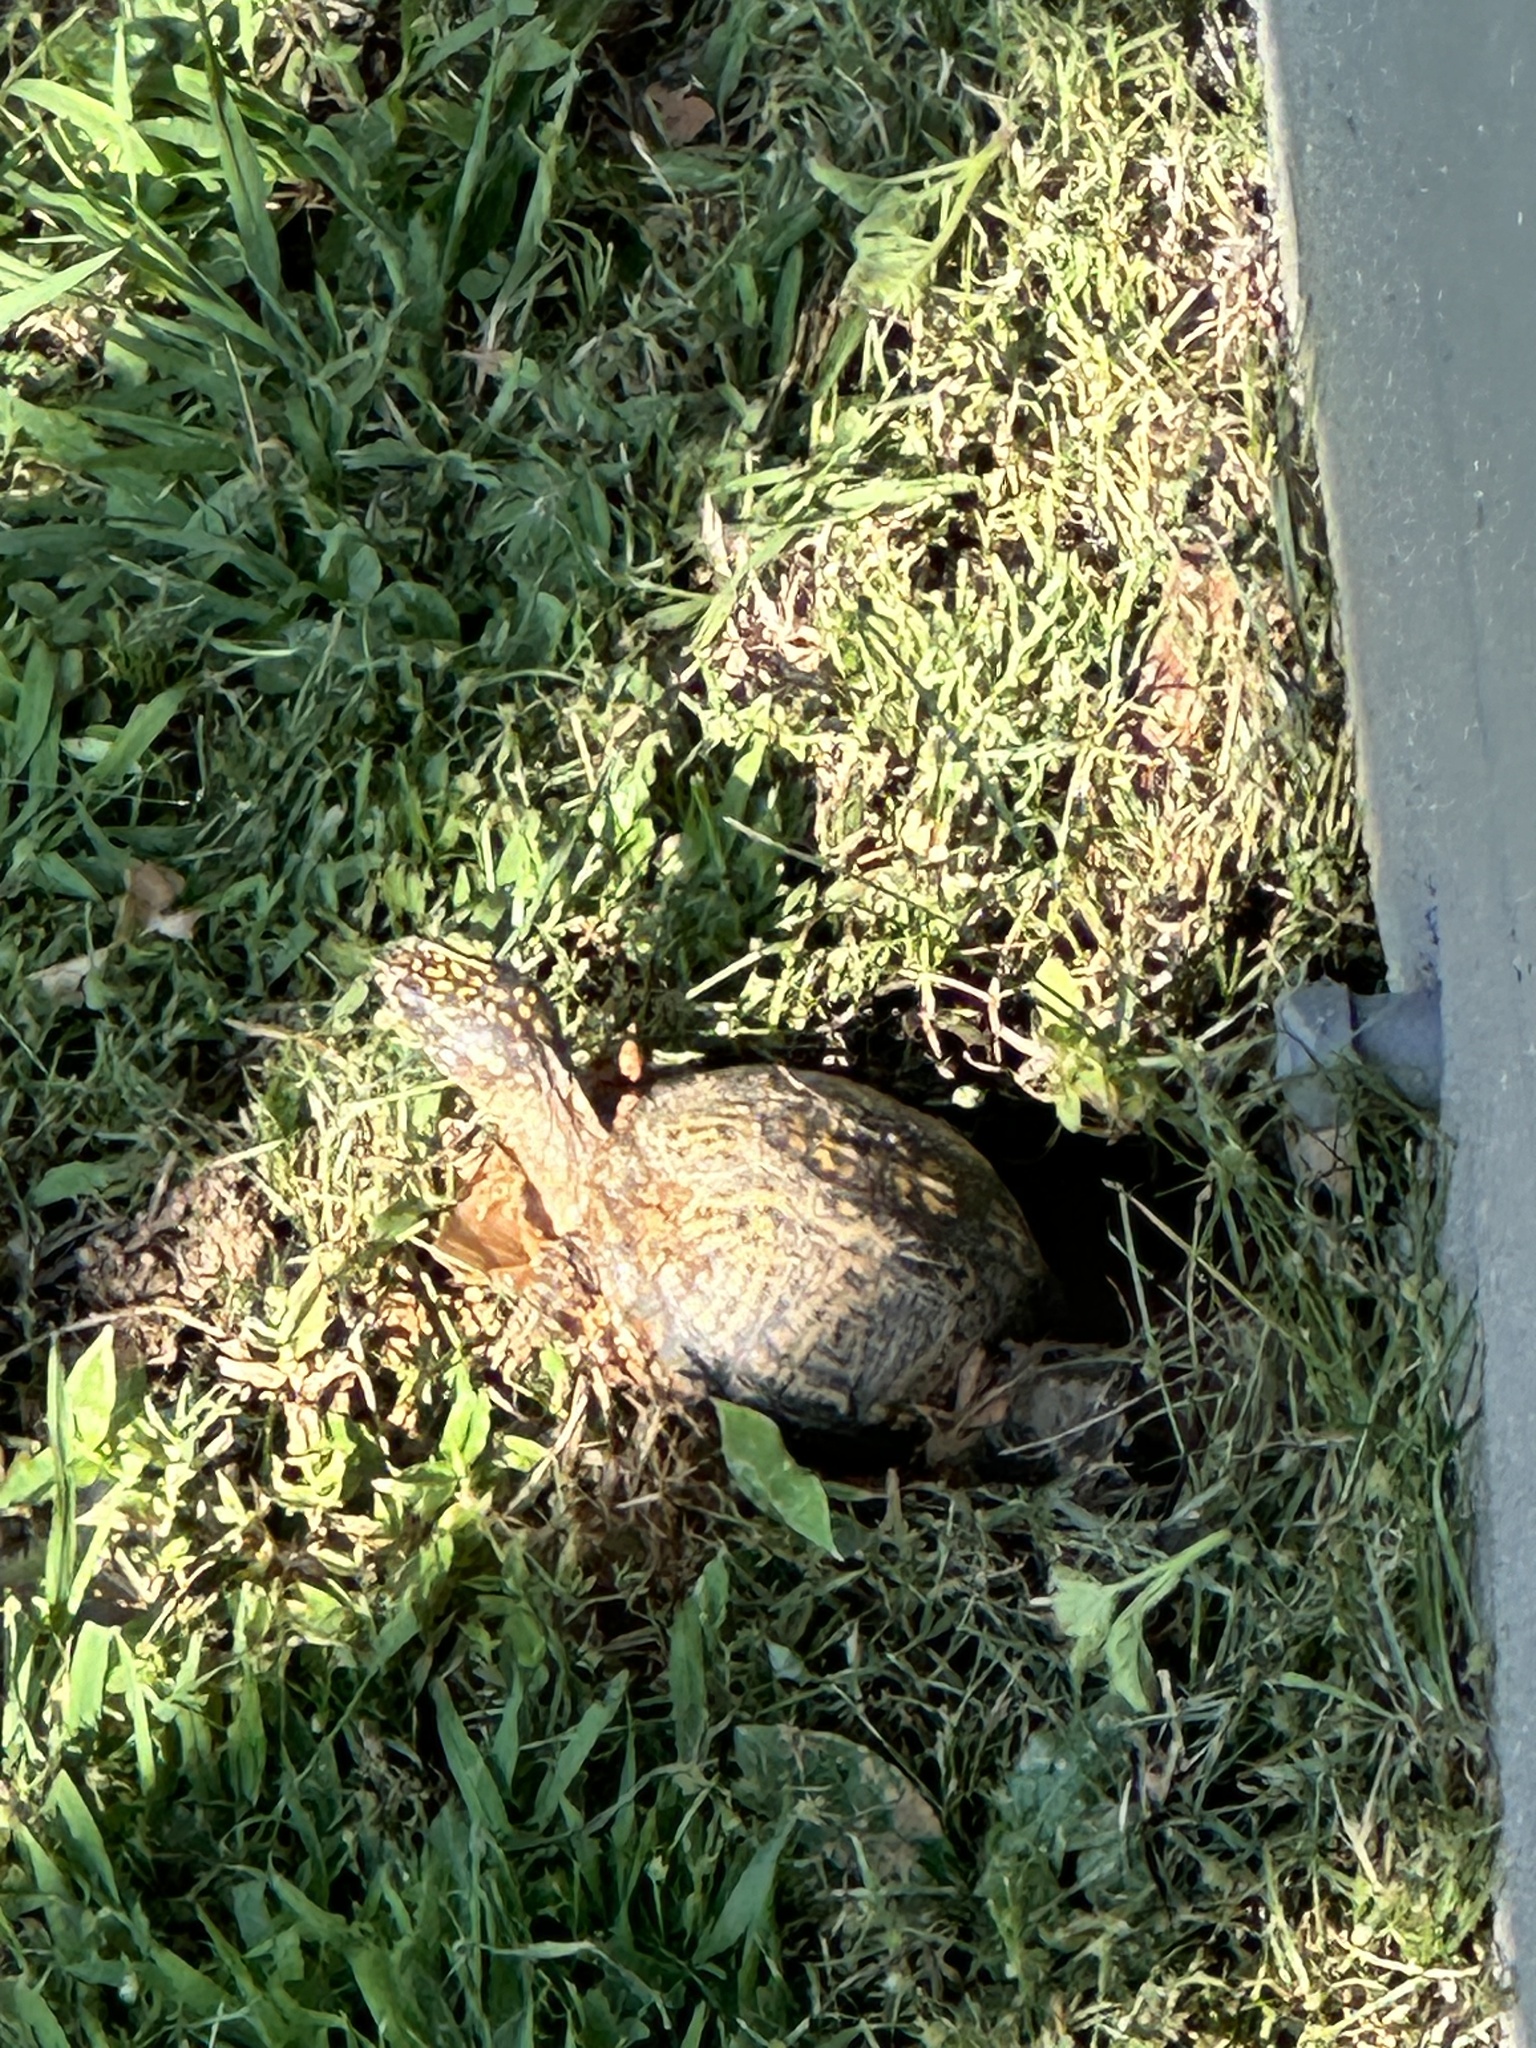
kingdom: Animalia
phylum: Chordata
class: Testudines
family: Emydidae
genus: Terrapene
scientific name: Terrapene carolina
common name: Common box turtle
